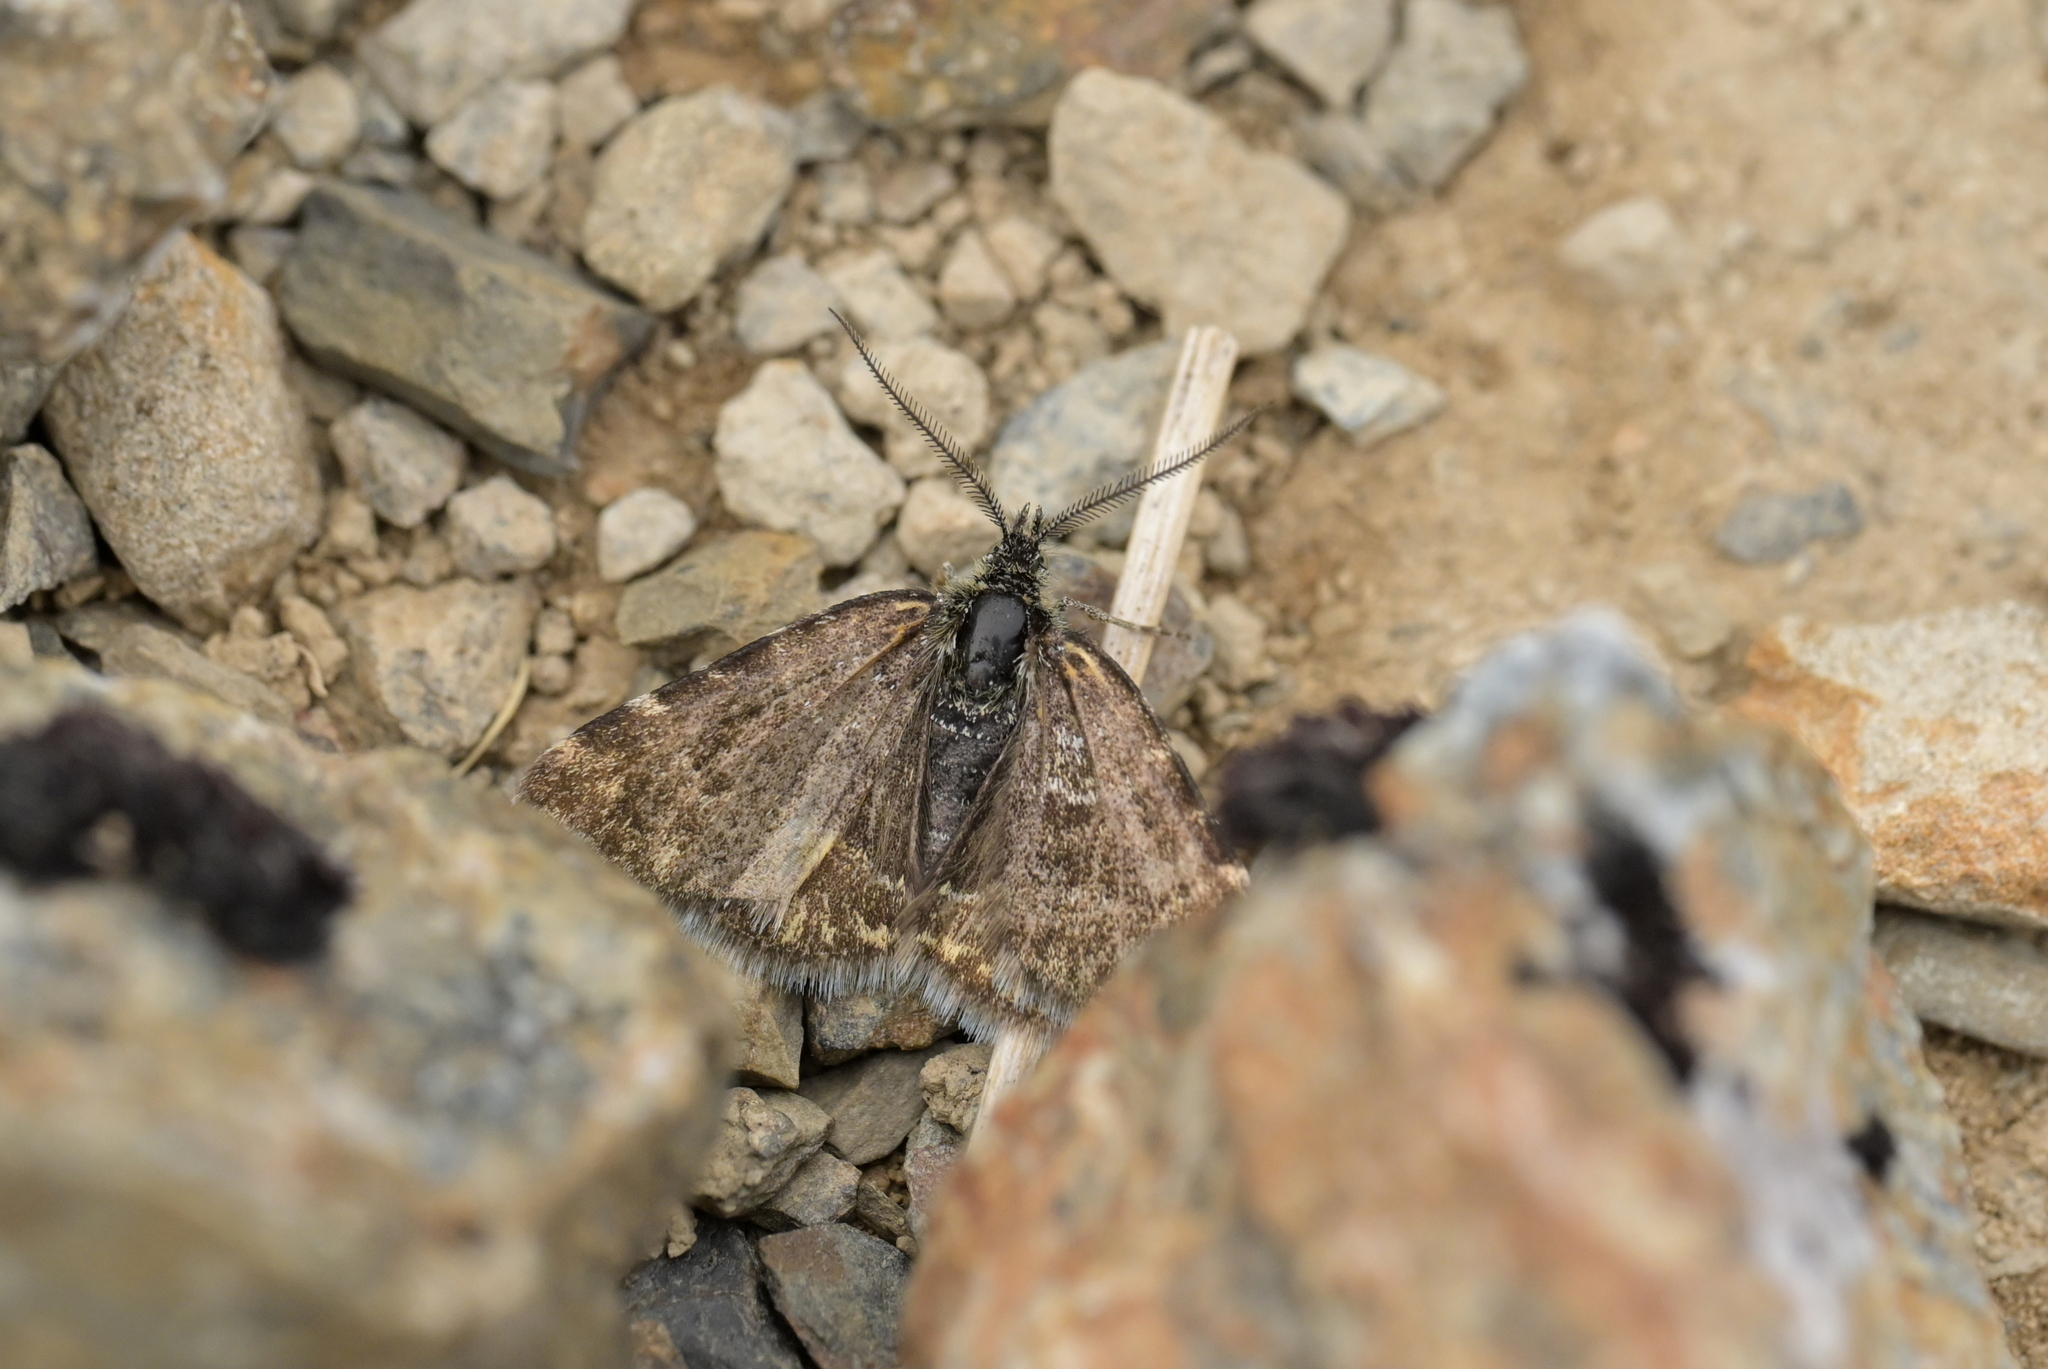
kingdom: Animalia
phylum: Arthropoda
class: Insecta
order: Lepidoptera
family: Geometridae
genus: Notoreas
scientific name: Notoreas atmogramma
